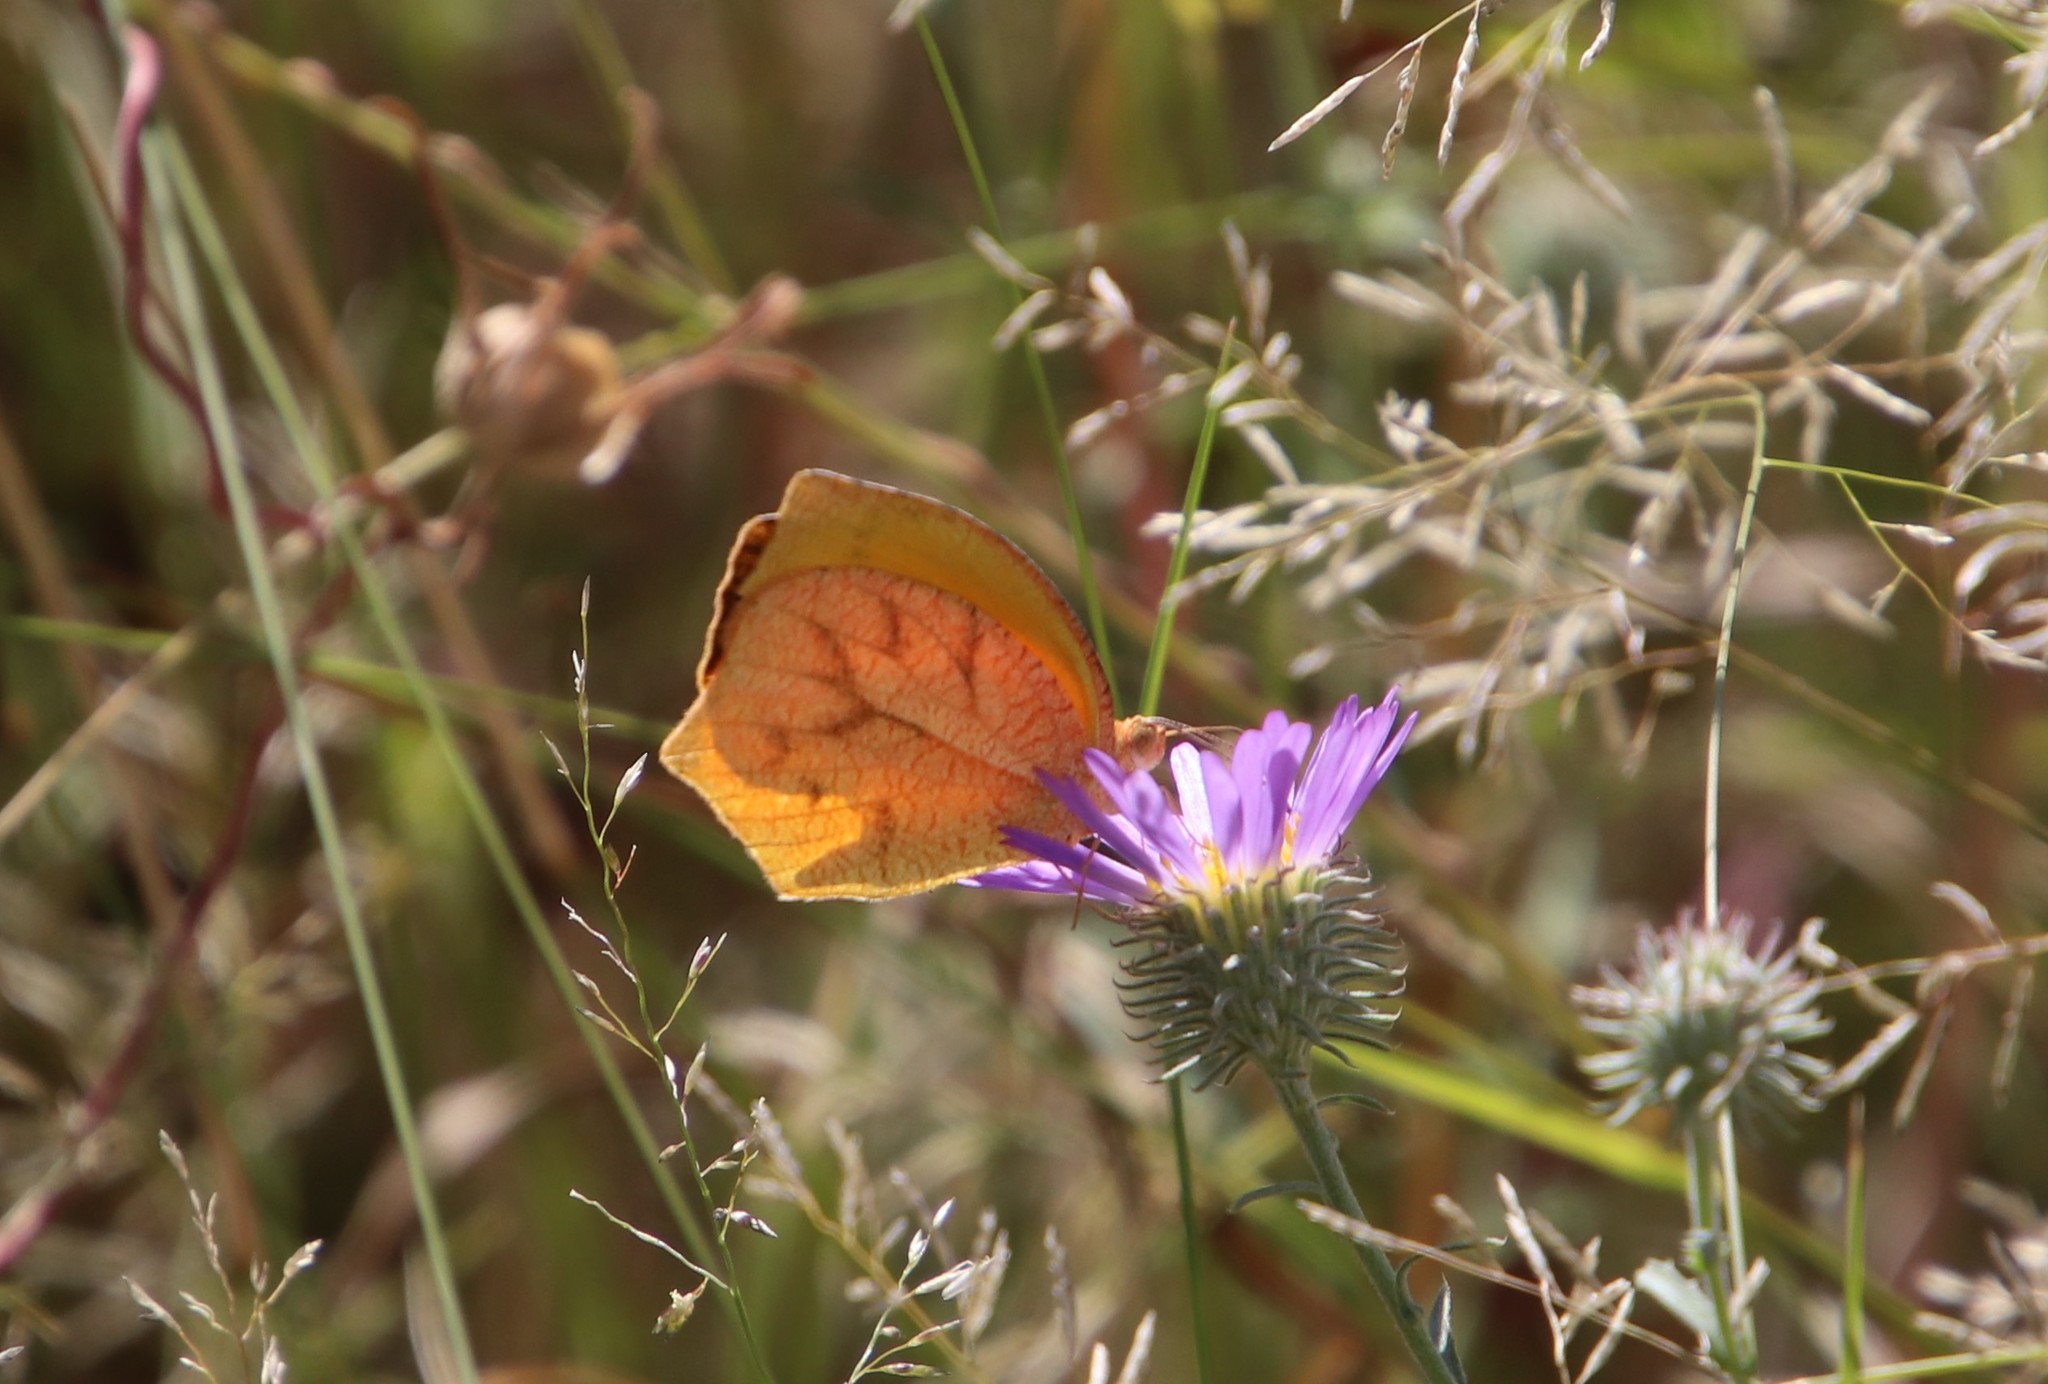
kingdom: Animalia
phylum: Arthropoda
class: Insecta
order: Lepidoptera
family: Pieridae
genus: Pyrisitia
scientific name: Pyrisitia proterpia
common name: Tailed orange
